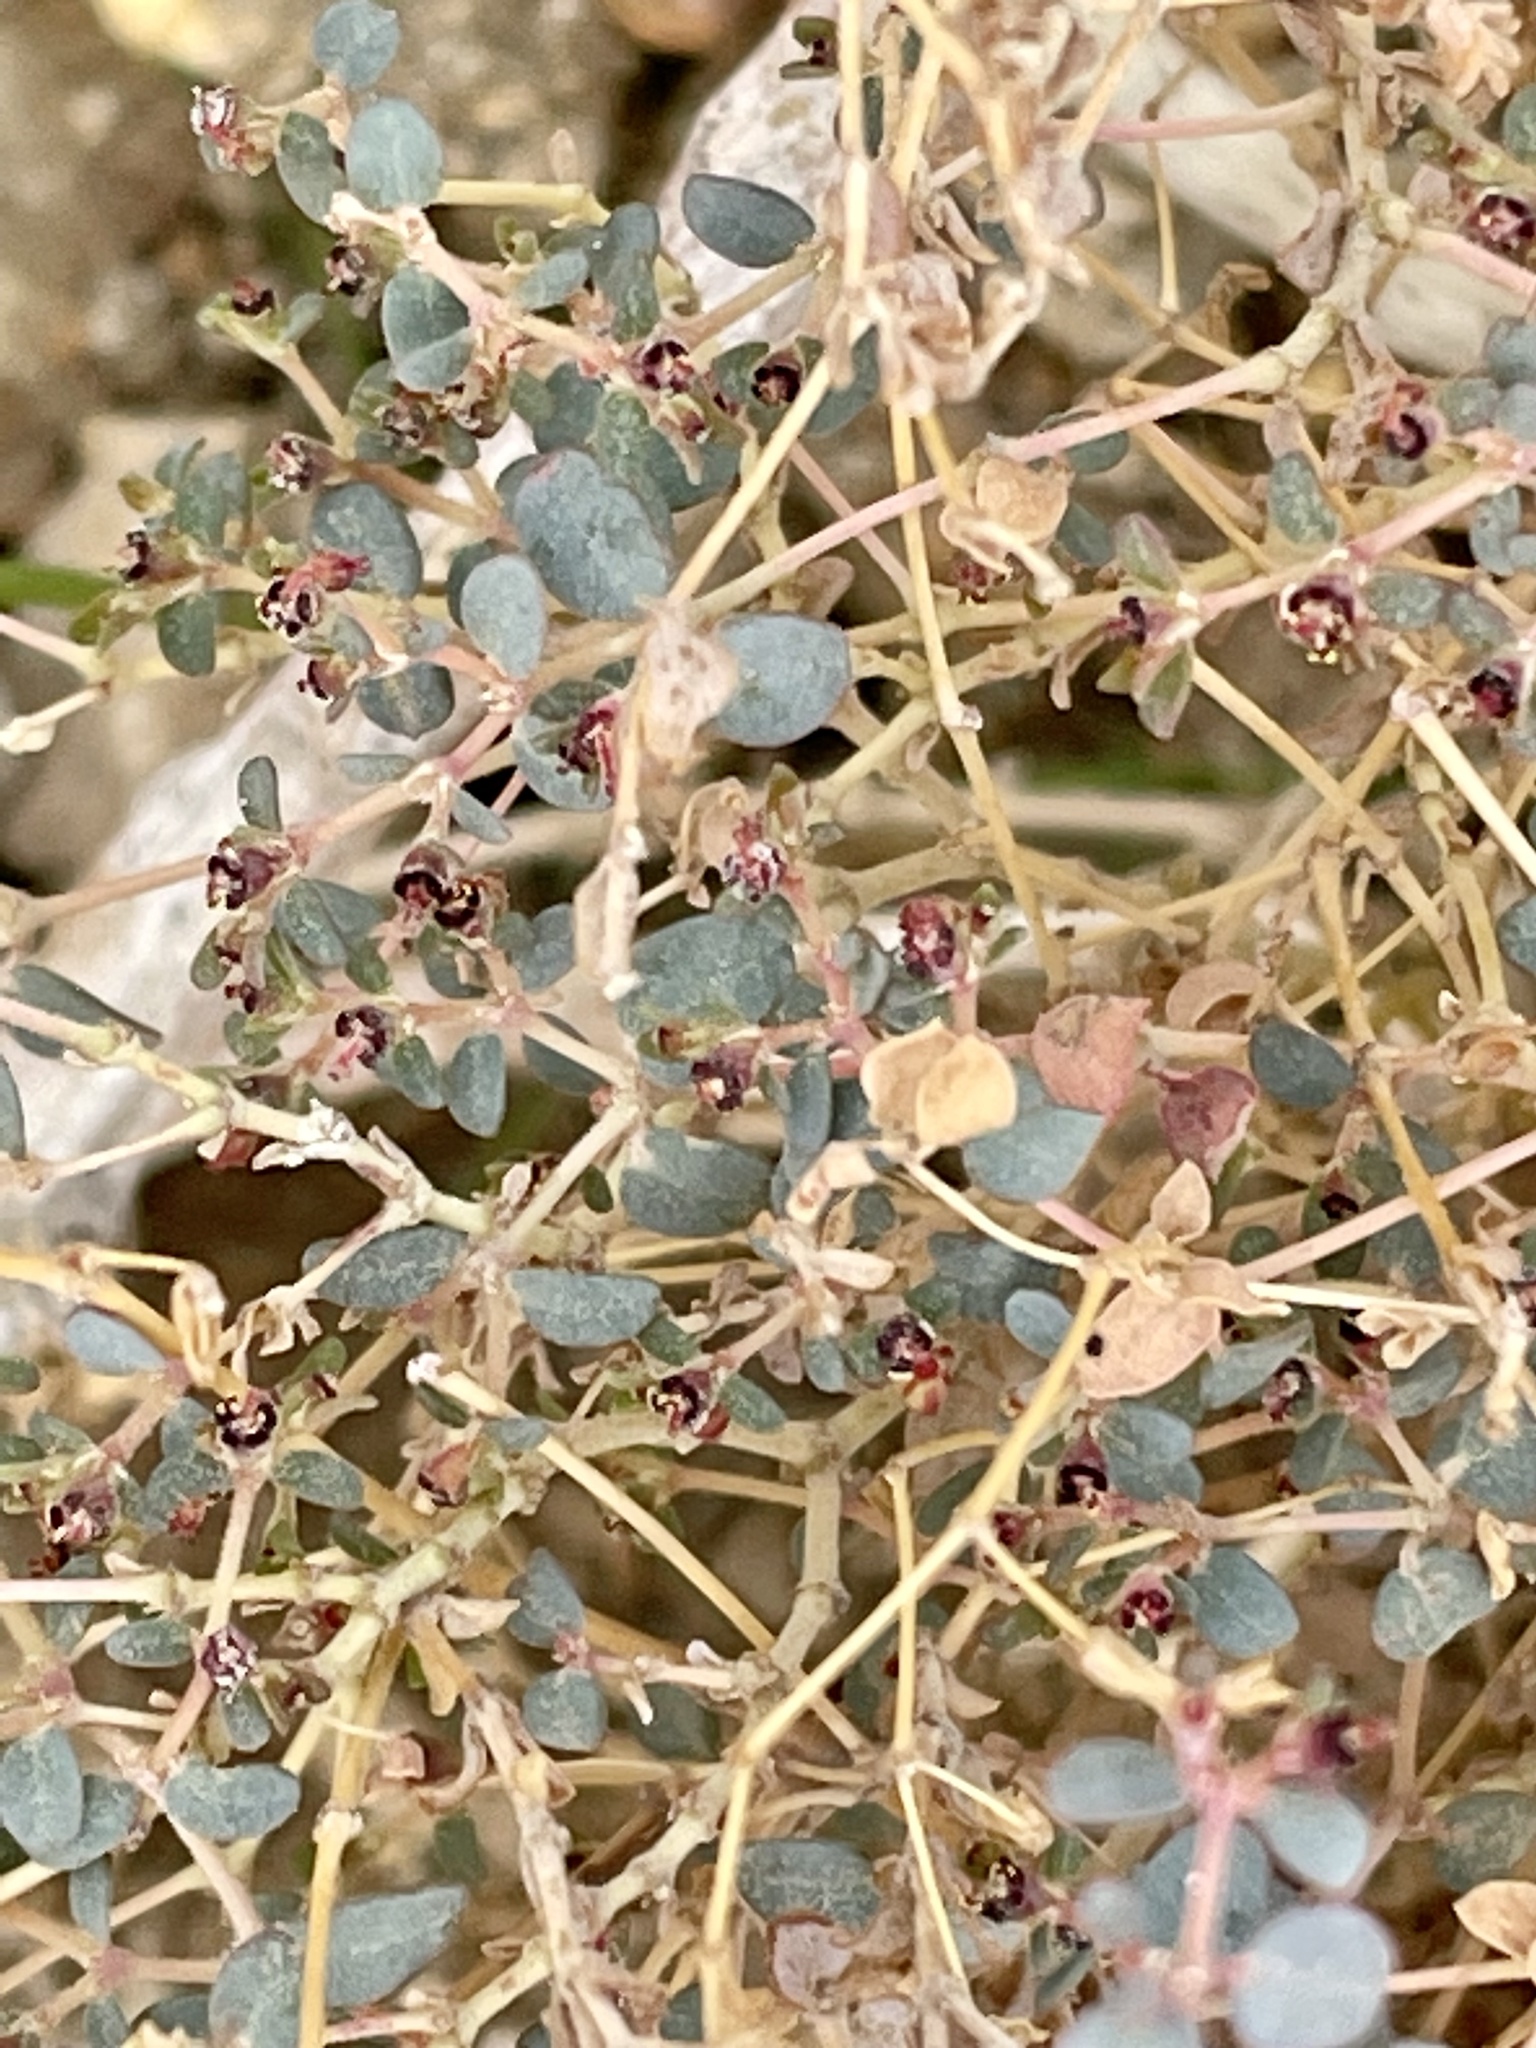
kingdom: Plantae
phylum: Tracheophyta
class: Magnoliopsida
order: Malpighiales
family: Euphorbiaceae
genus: Euphorbia
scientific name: Euphorbia polycarpa
